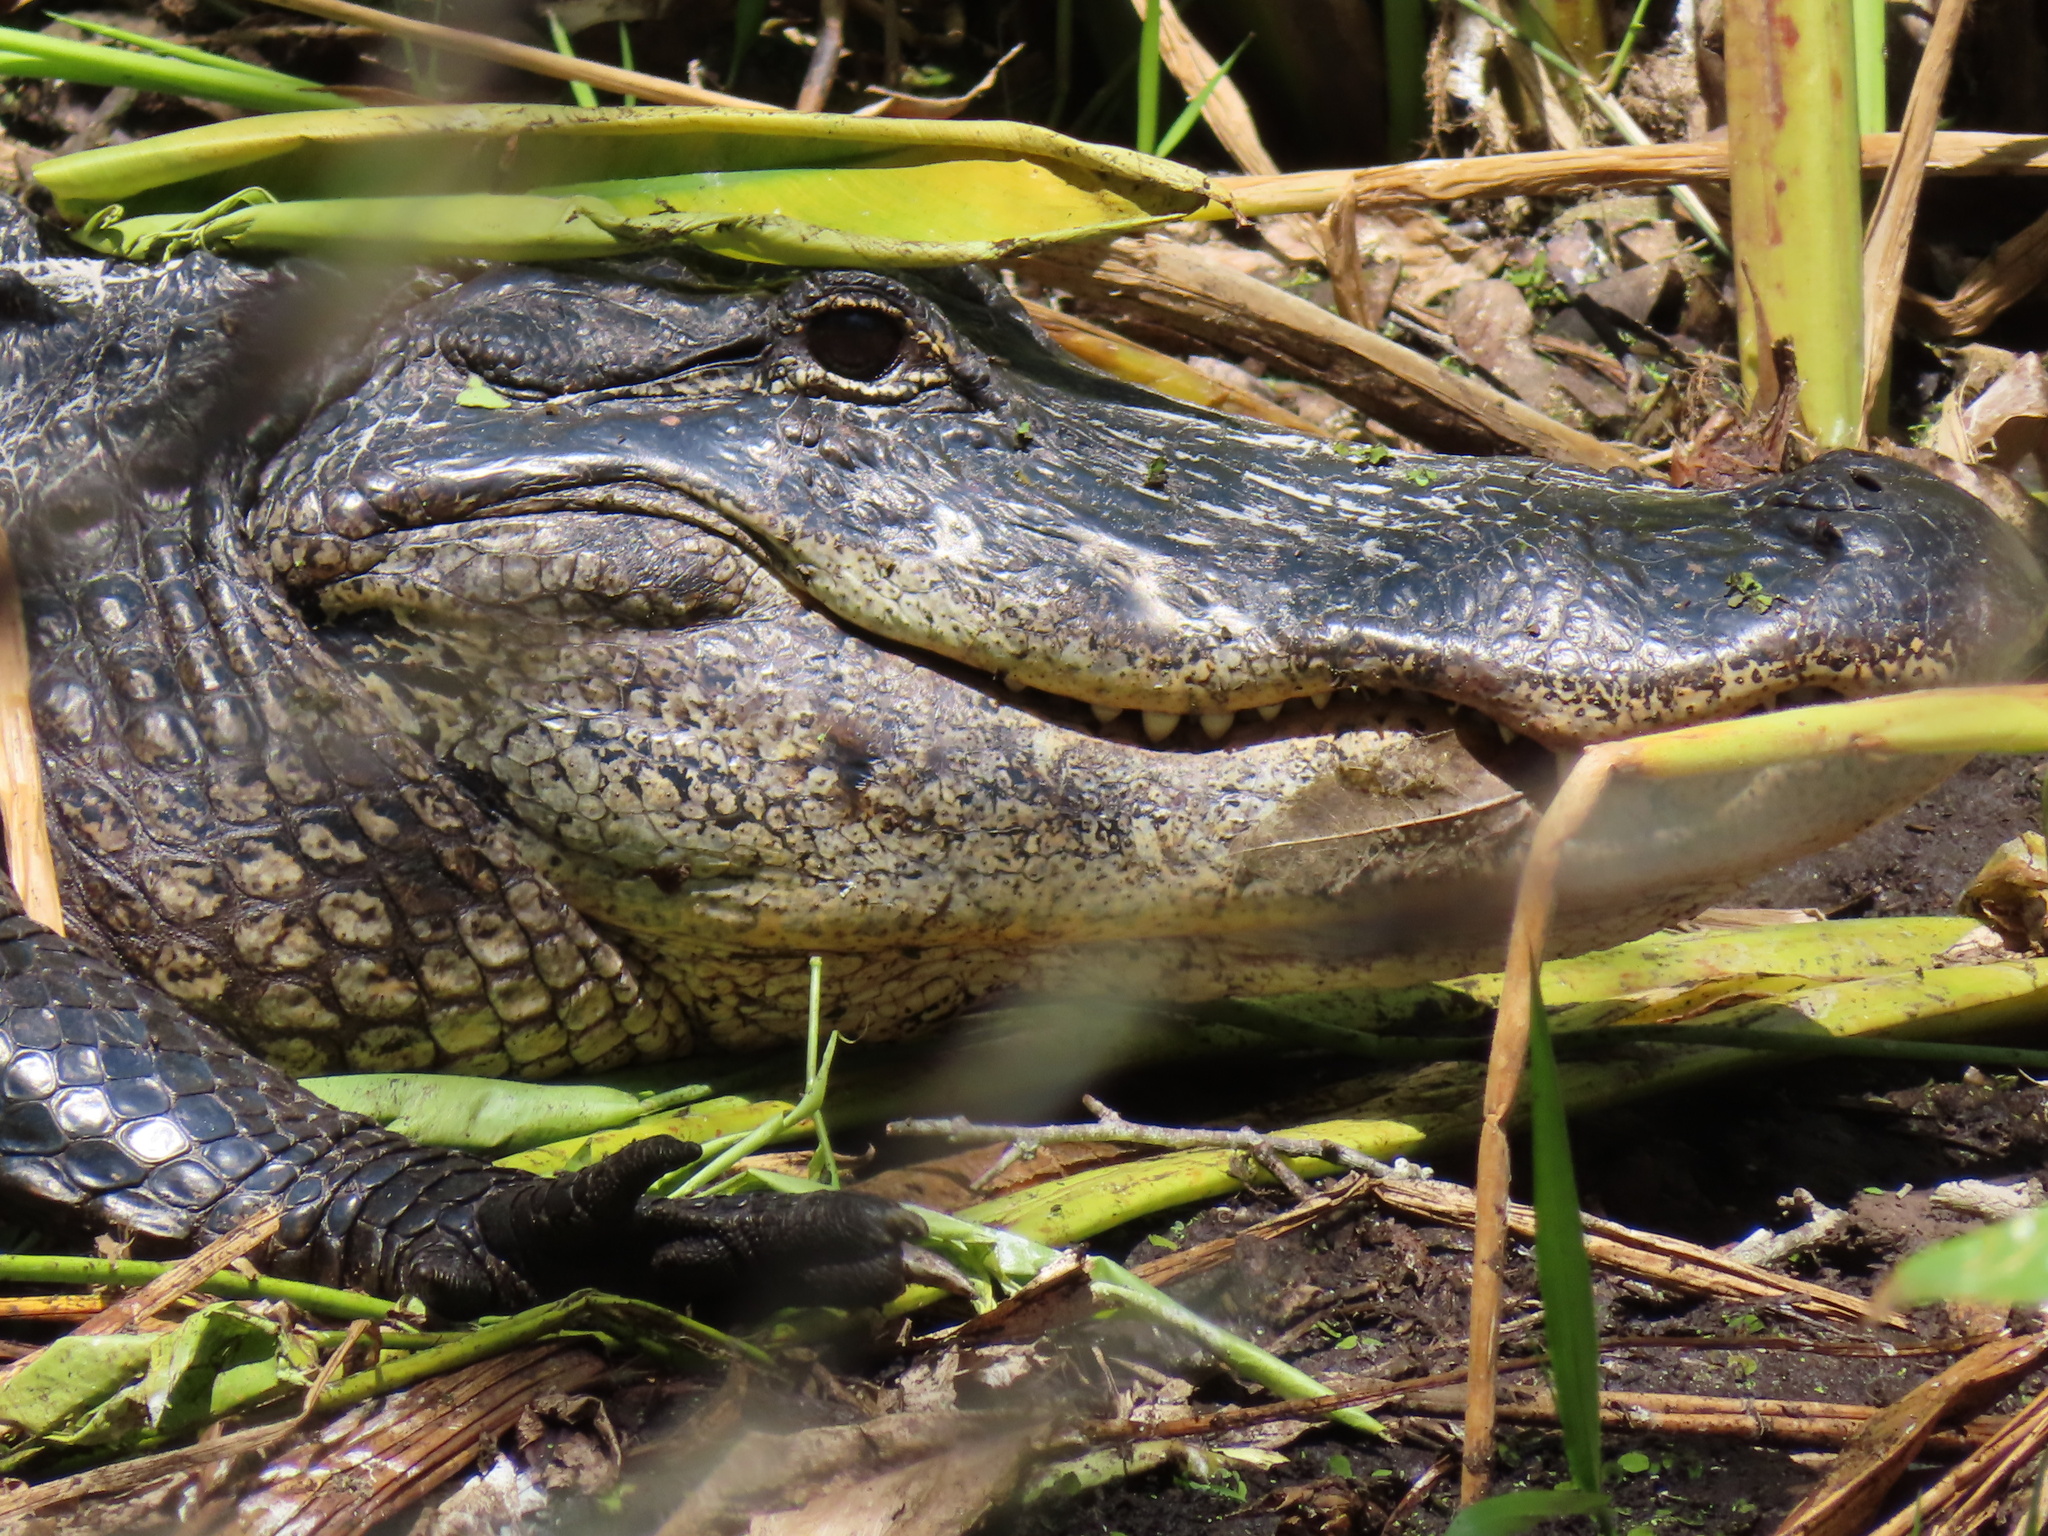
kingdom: Animalia
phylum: Chordata
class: Crocodylia
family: Alligatoridae
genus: Alligator
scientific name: Alligator mississippiensis
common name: American alligator
